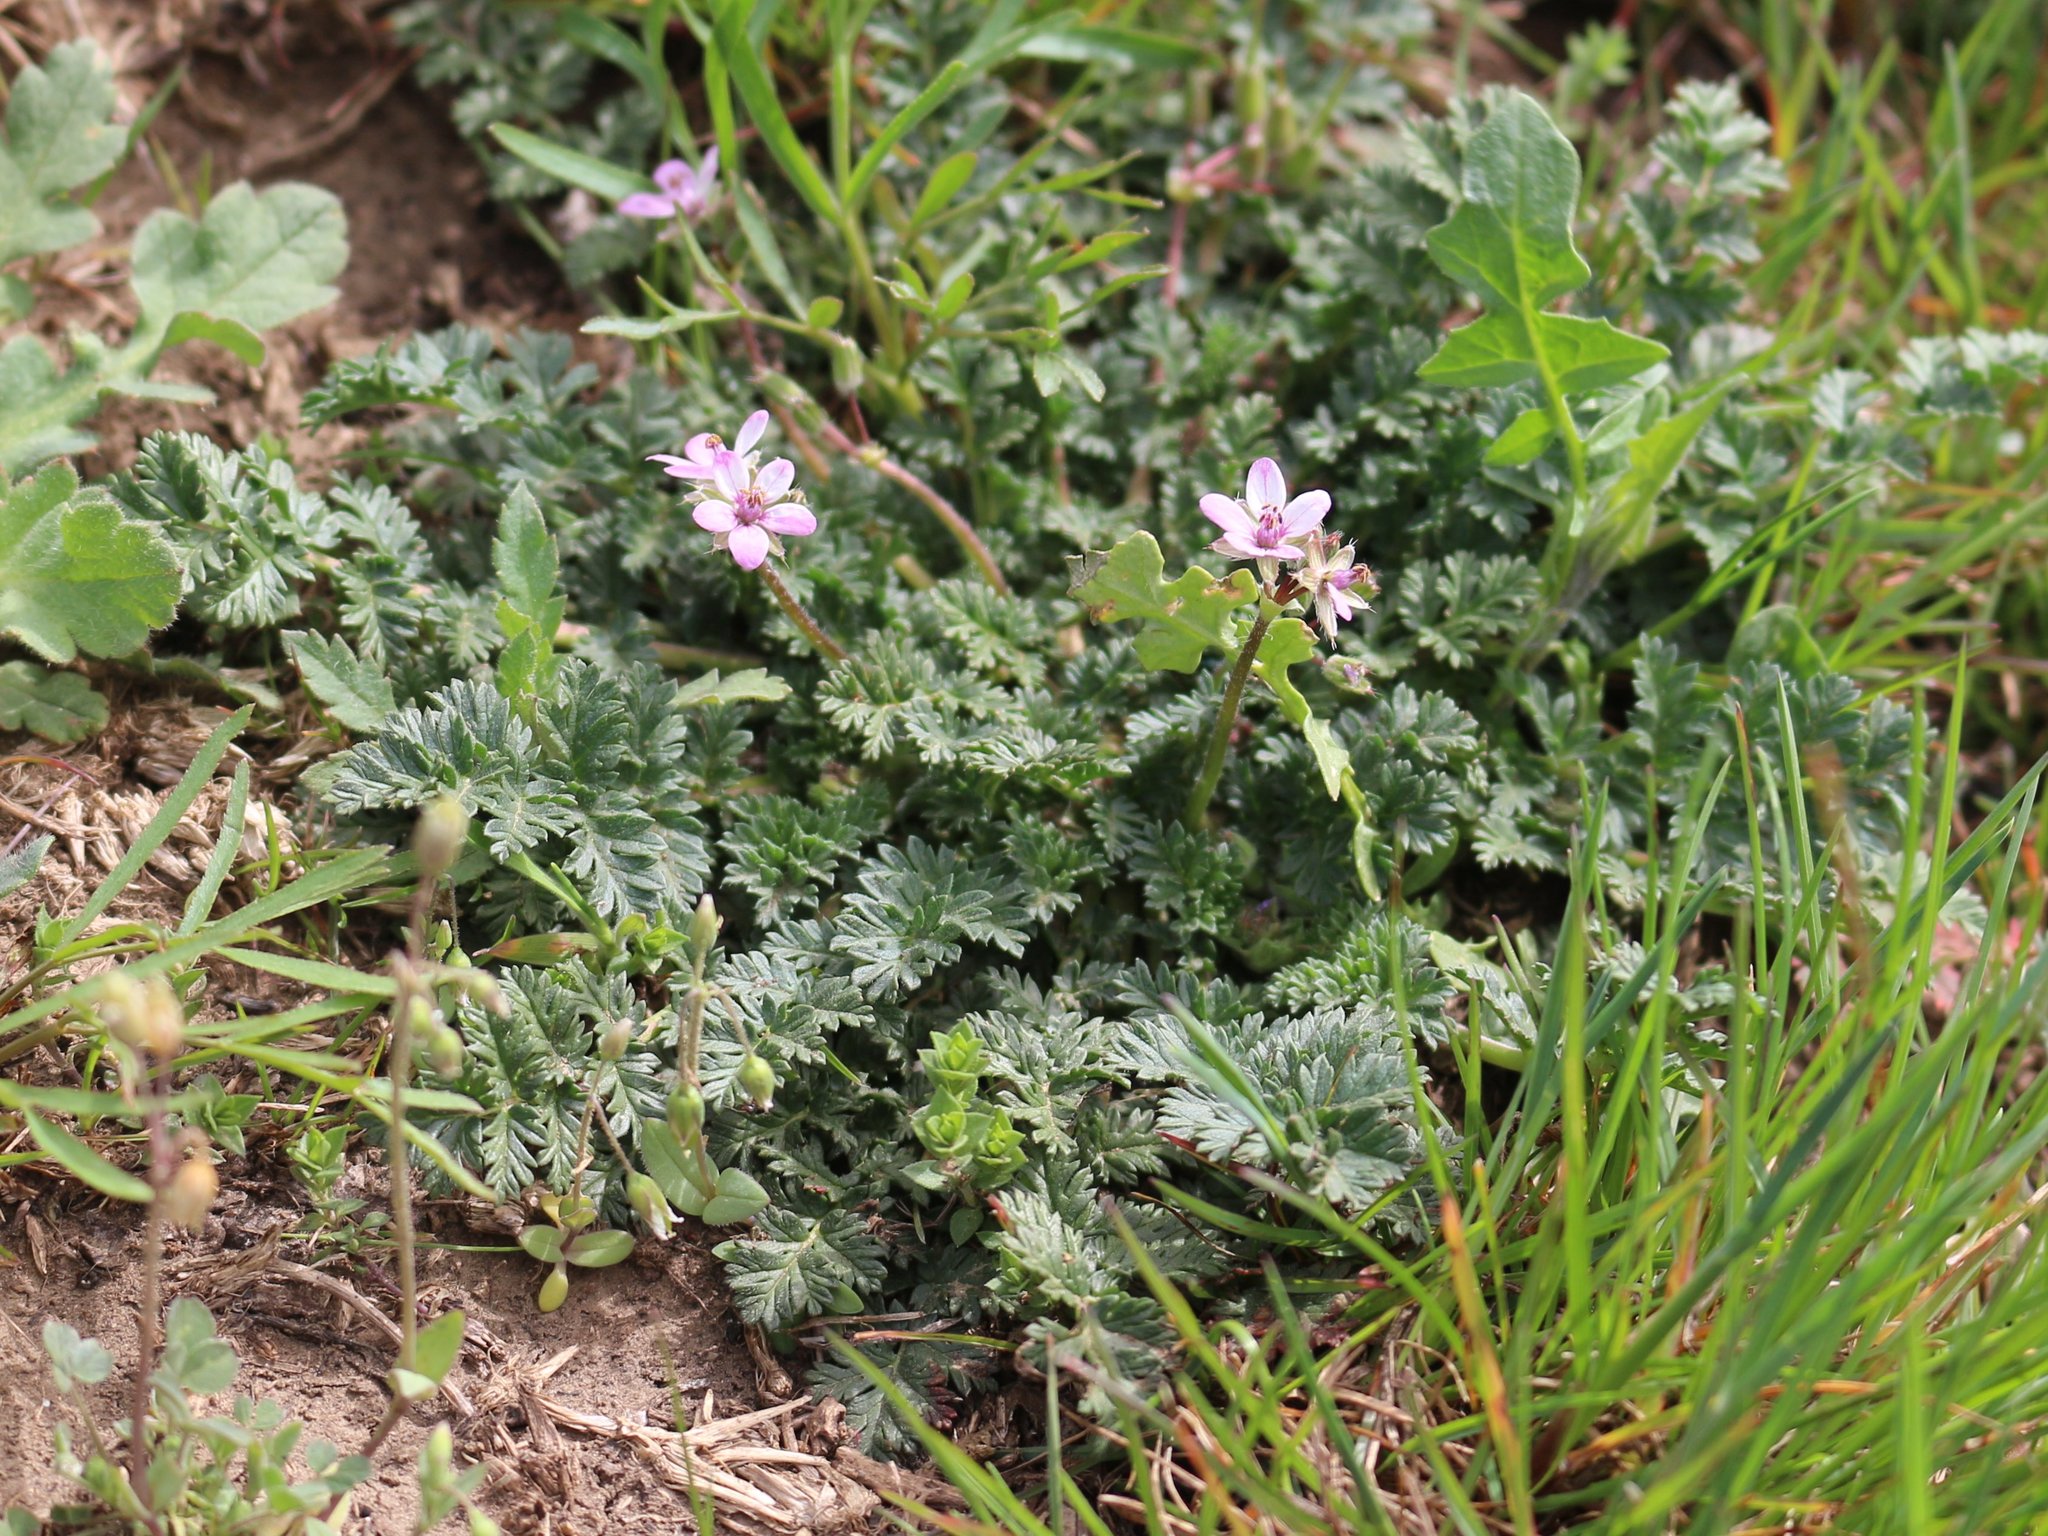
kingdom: Plantae
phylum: Tracheophyta
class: Magnoliopsida
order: Geraniales
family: Geraniaceae
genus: Erodium
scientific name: Erodium cicutarium
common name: Common stork's-bill
